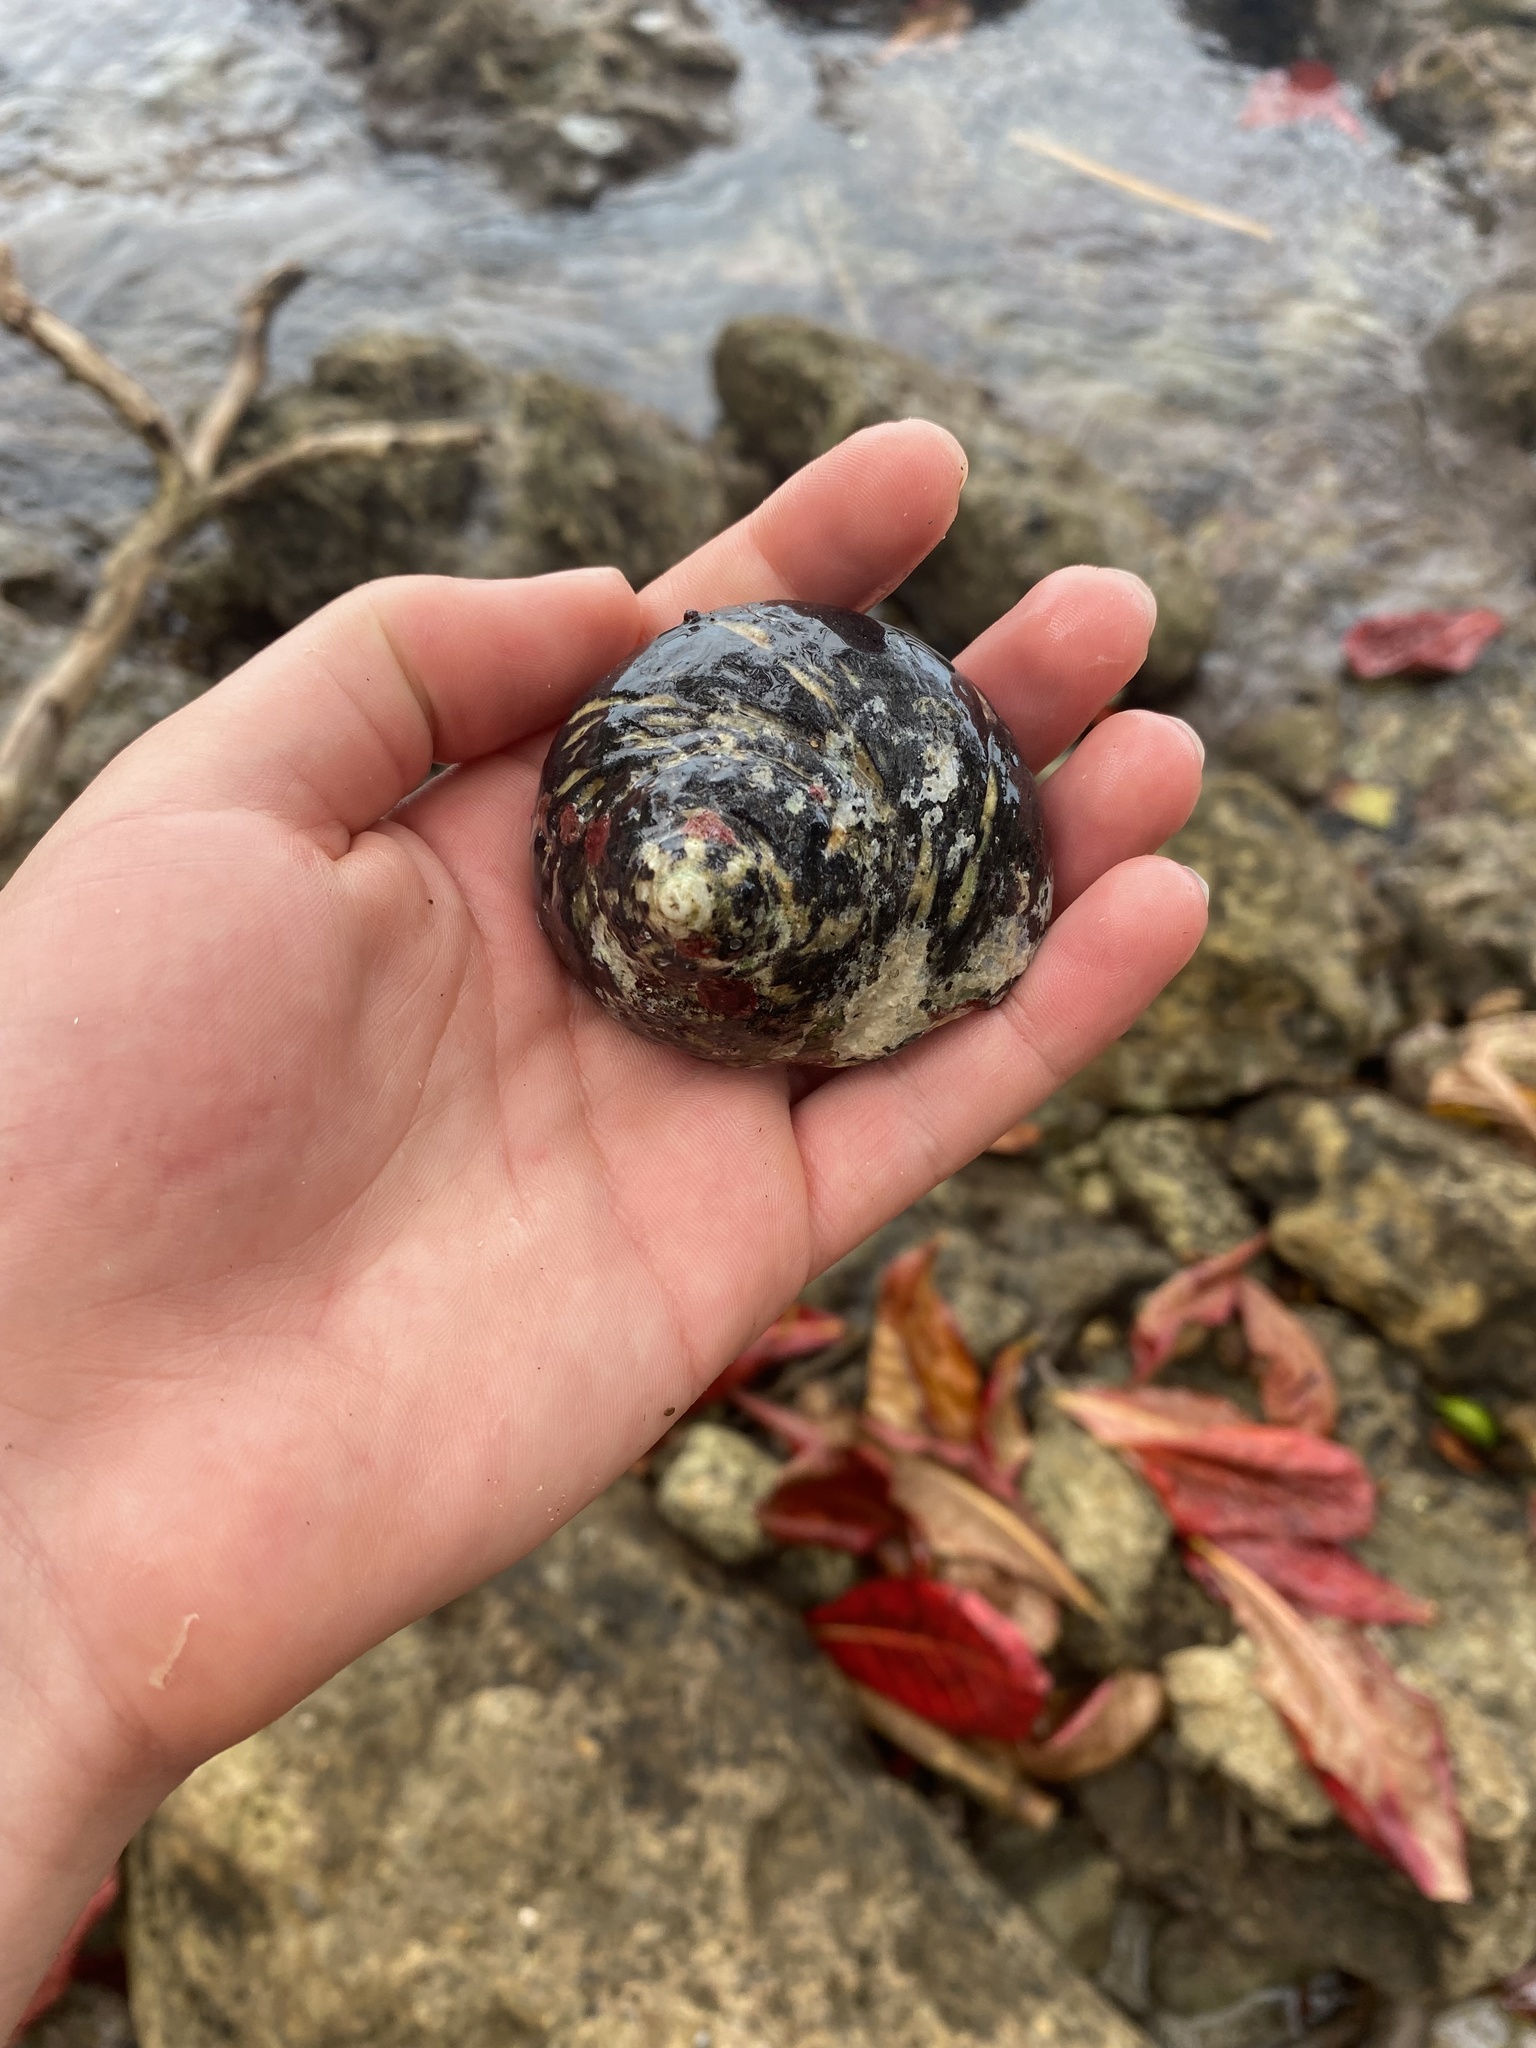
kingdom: Animalia
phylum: Mollusca
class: Gastropoda
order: Trochida
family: Tegulidae
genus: Cittarium
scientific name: Cittarium pica
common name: West indian topshell
